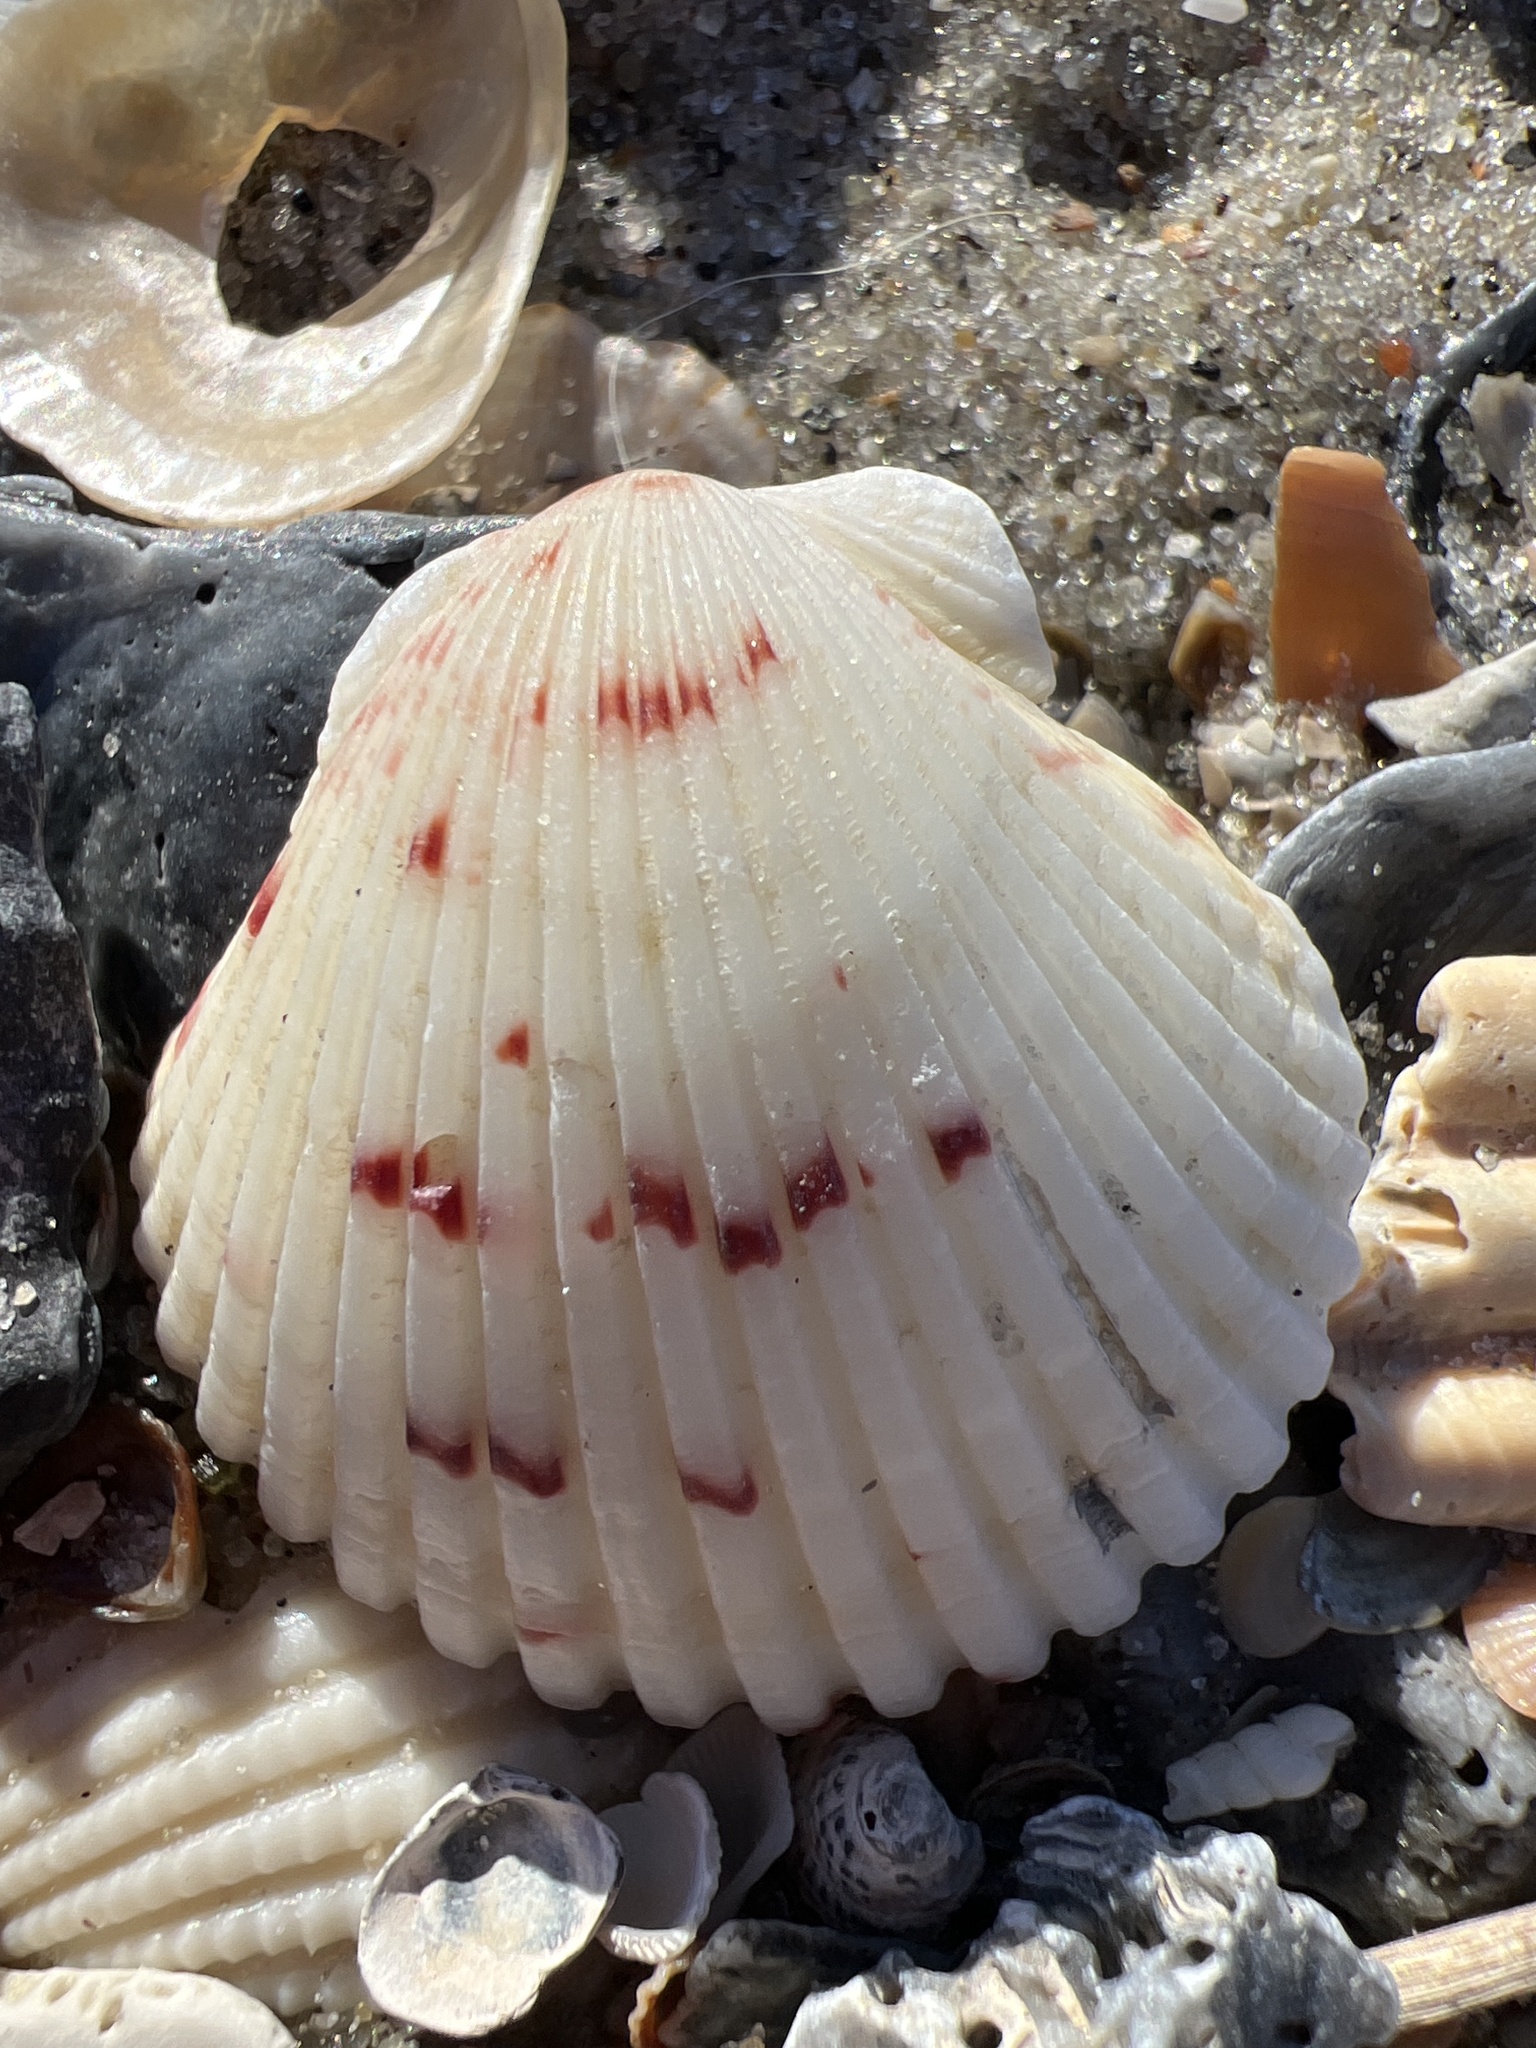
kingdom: Animalia
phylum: Mollusca
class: Bivalvia
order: Pectinida
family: Pectinidae
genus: Argopecten
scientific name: Argopecten gibbus
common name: Atlantic calico scallop
